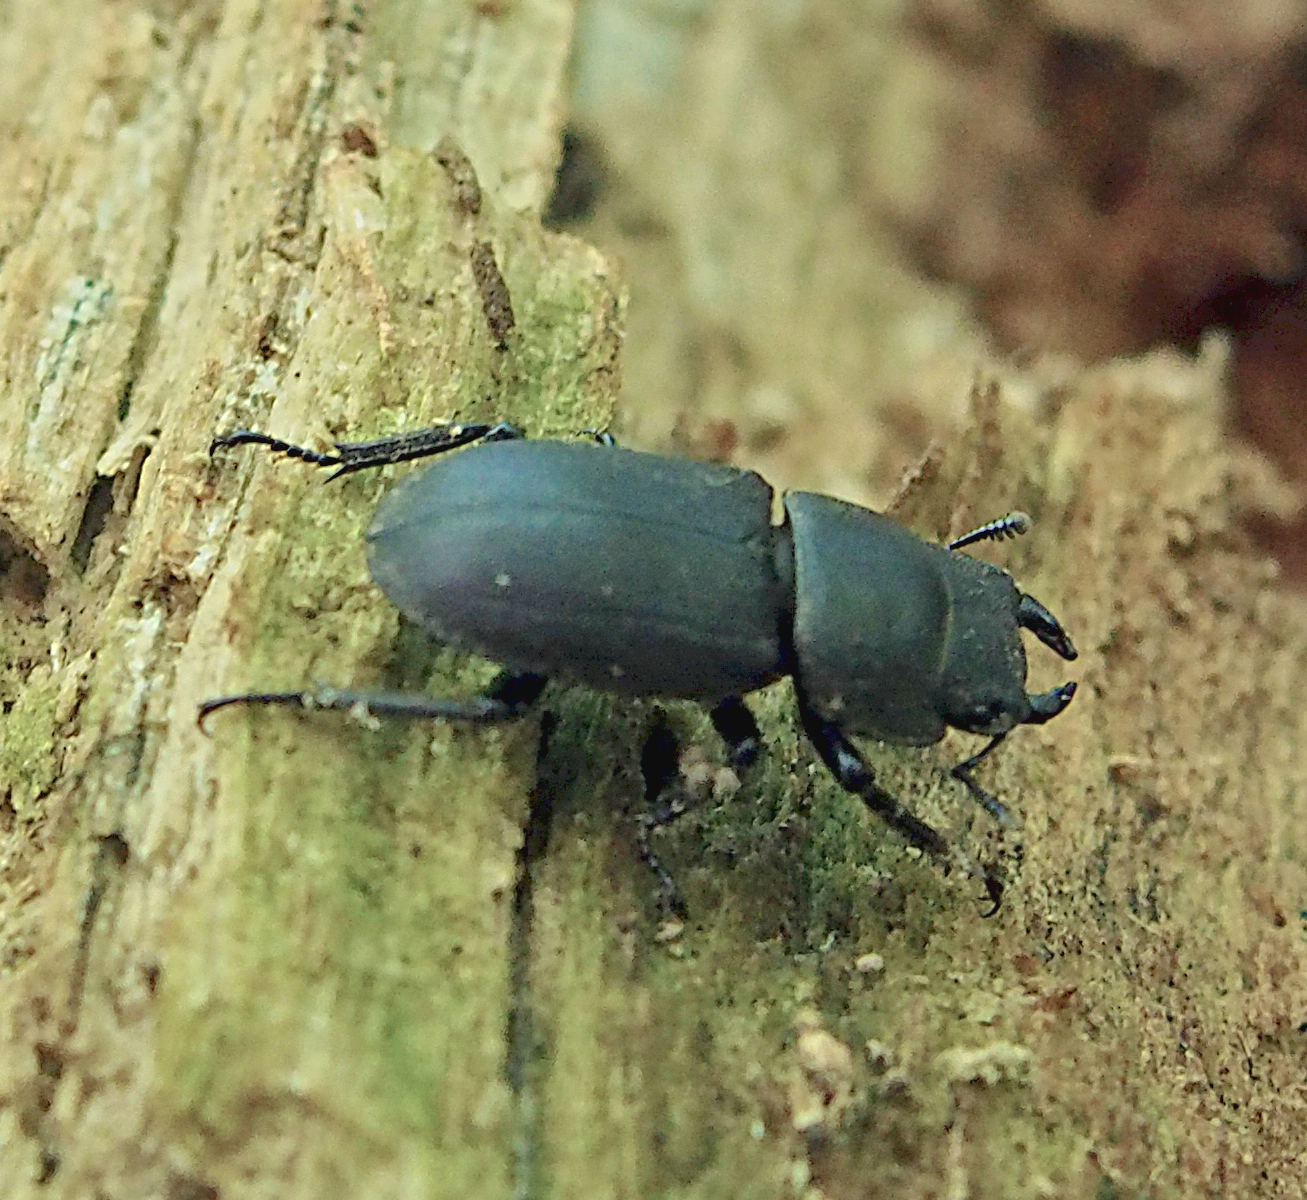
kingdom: Animalia
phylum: Arthropoda
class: Insecta
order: Coleoptera
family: Lucanidae
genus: Dorcus
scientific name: Dorcus parallelipipedus
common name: Lesser stag beetle
